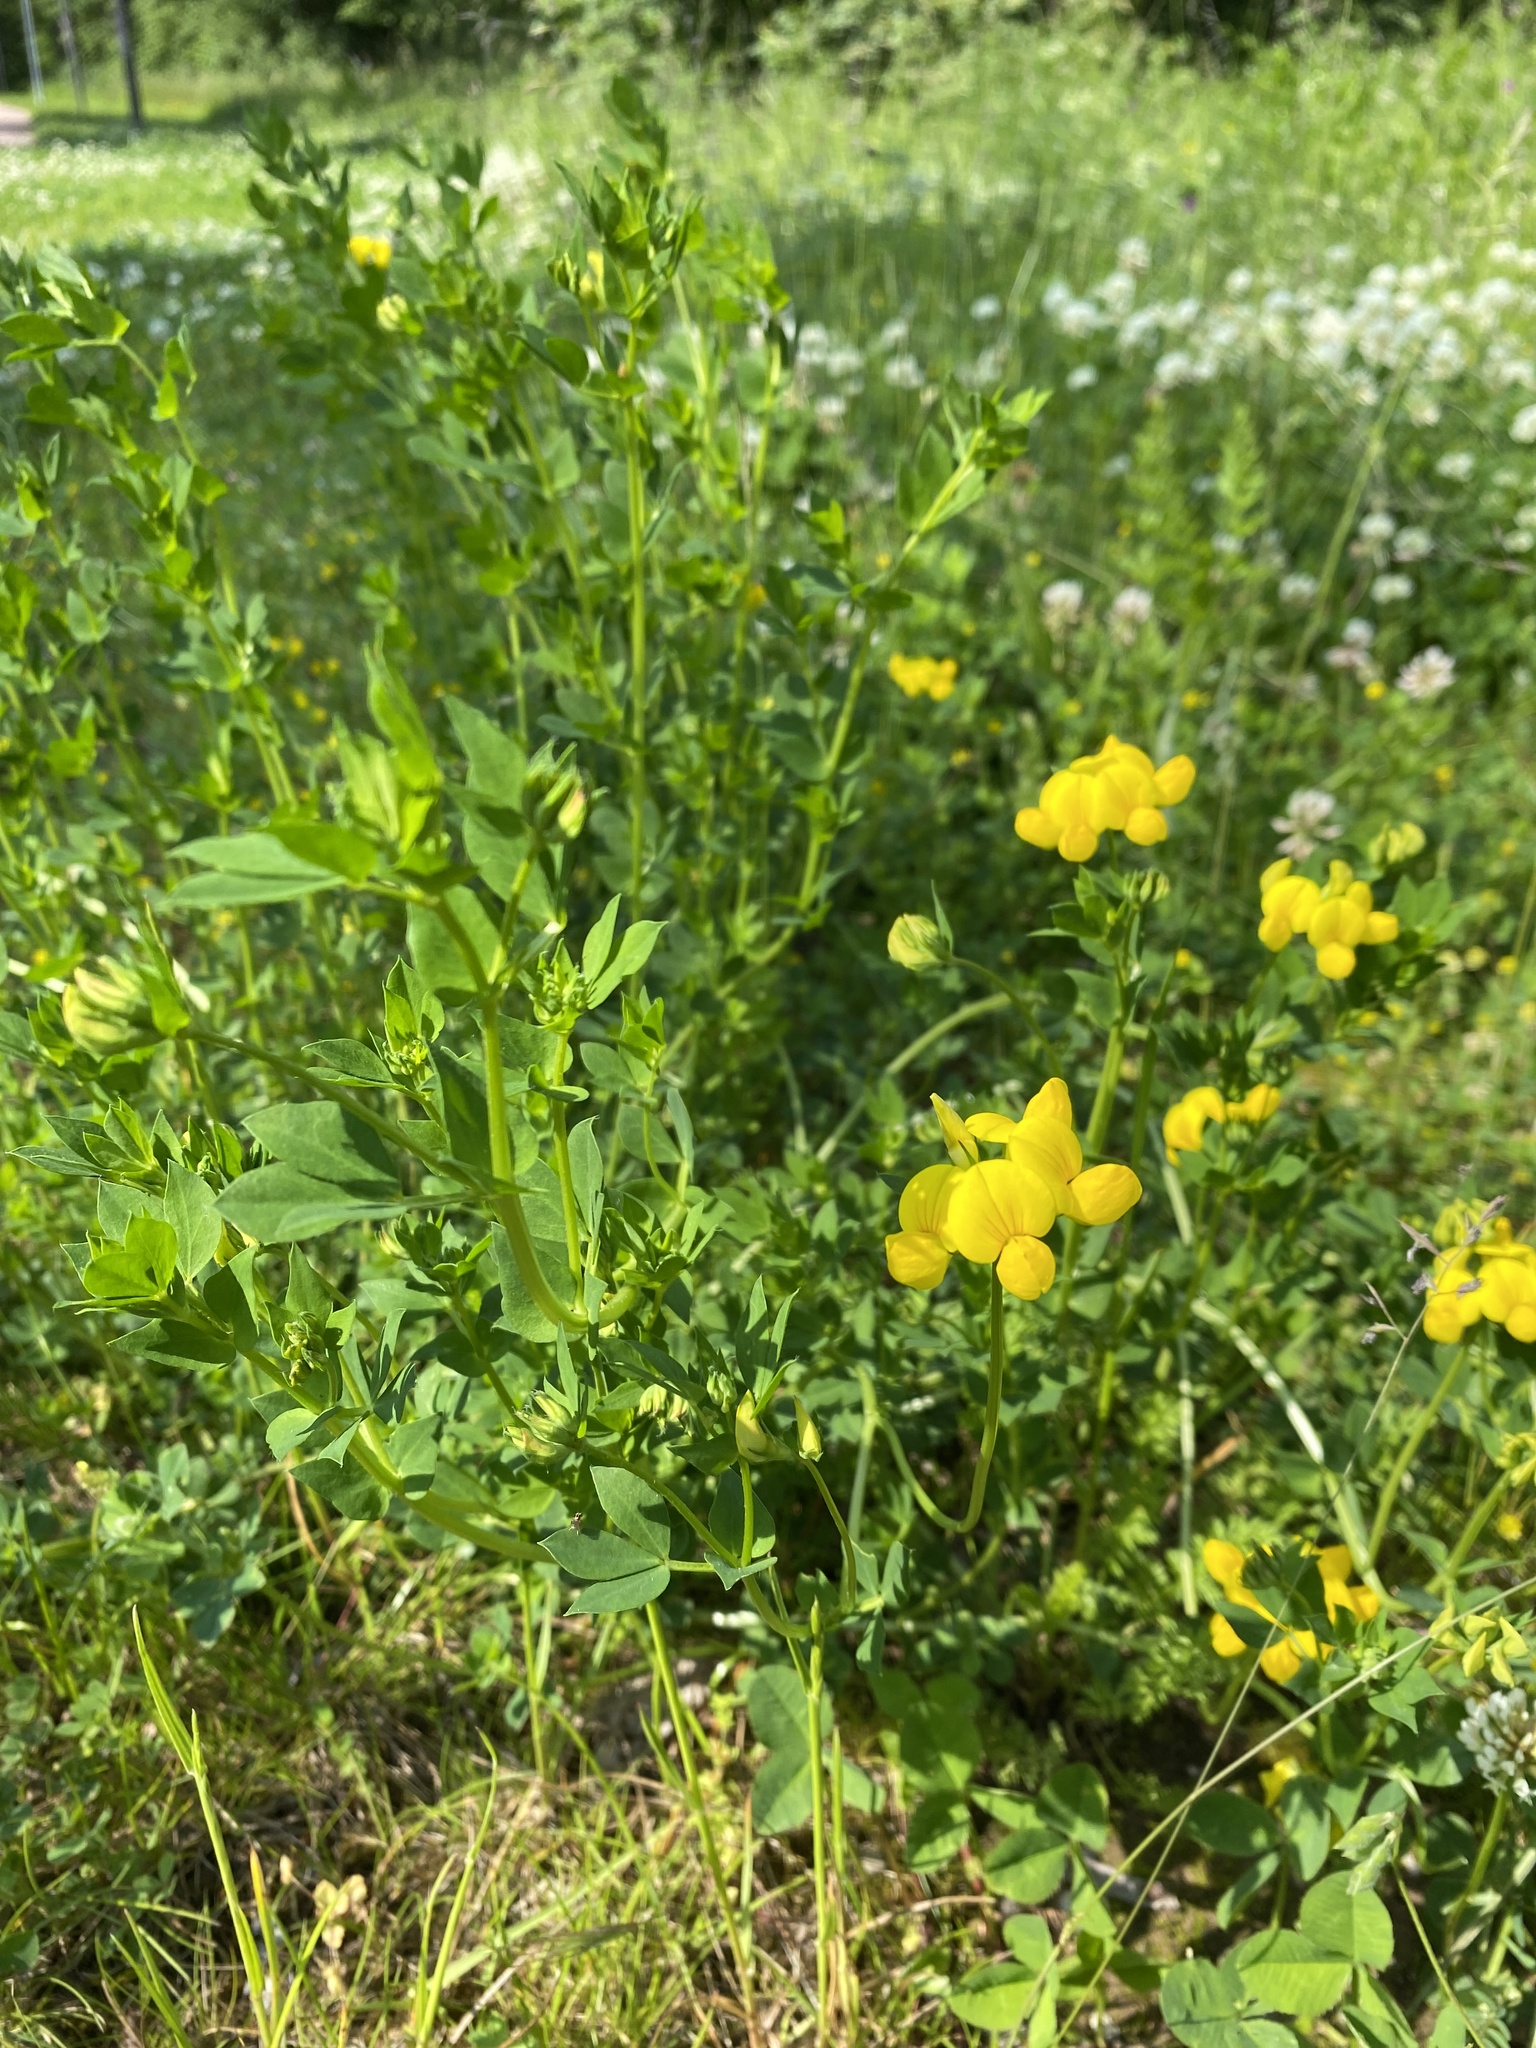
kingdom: Plantae
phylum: Tracheophyta
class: Magnoliopsida
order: Fabales
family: Fabaceae
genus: Lotus
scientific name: Lotus corniculatus
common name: Common bird's-foot-trefoil
